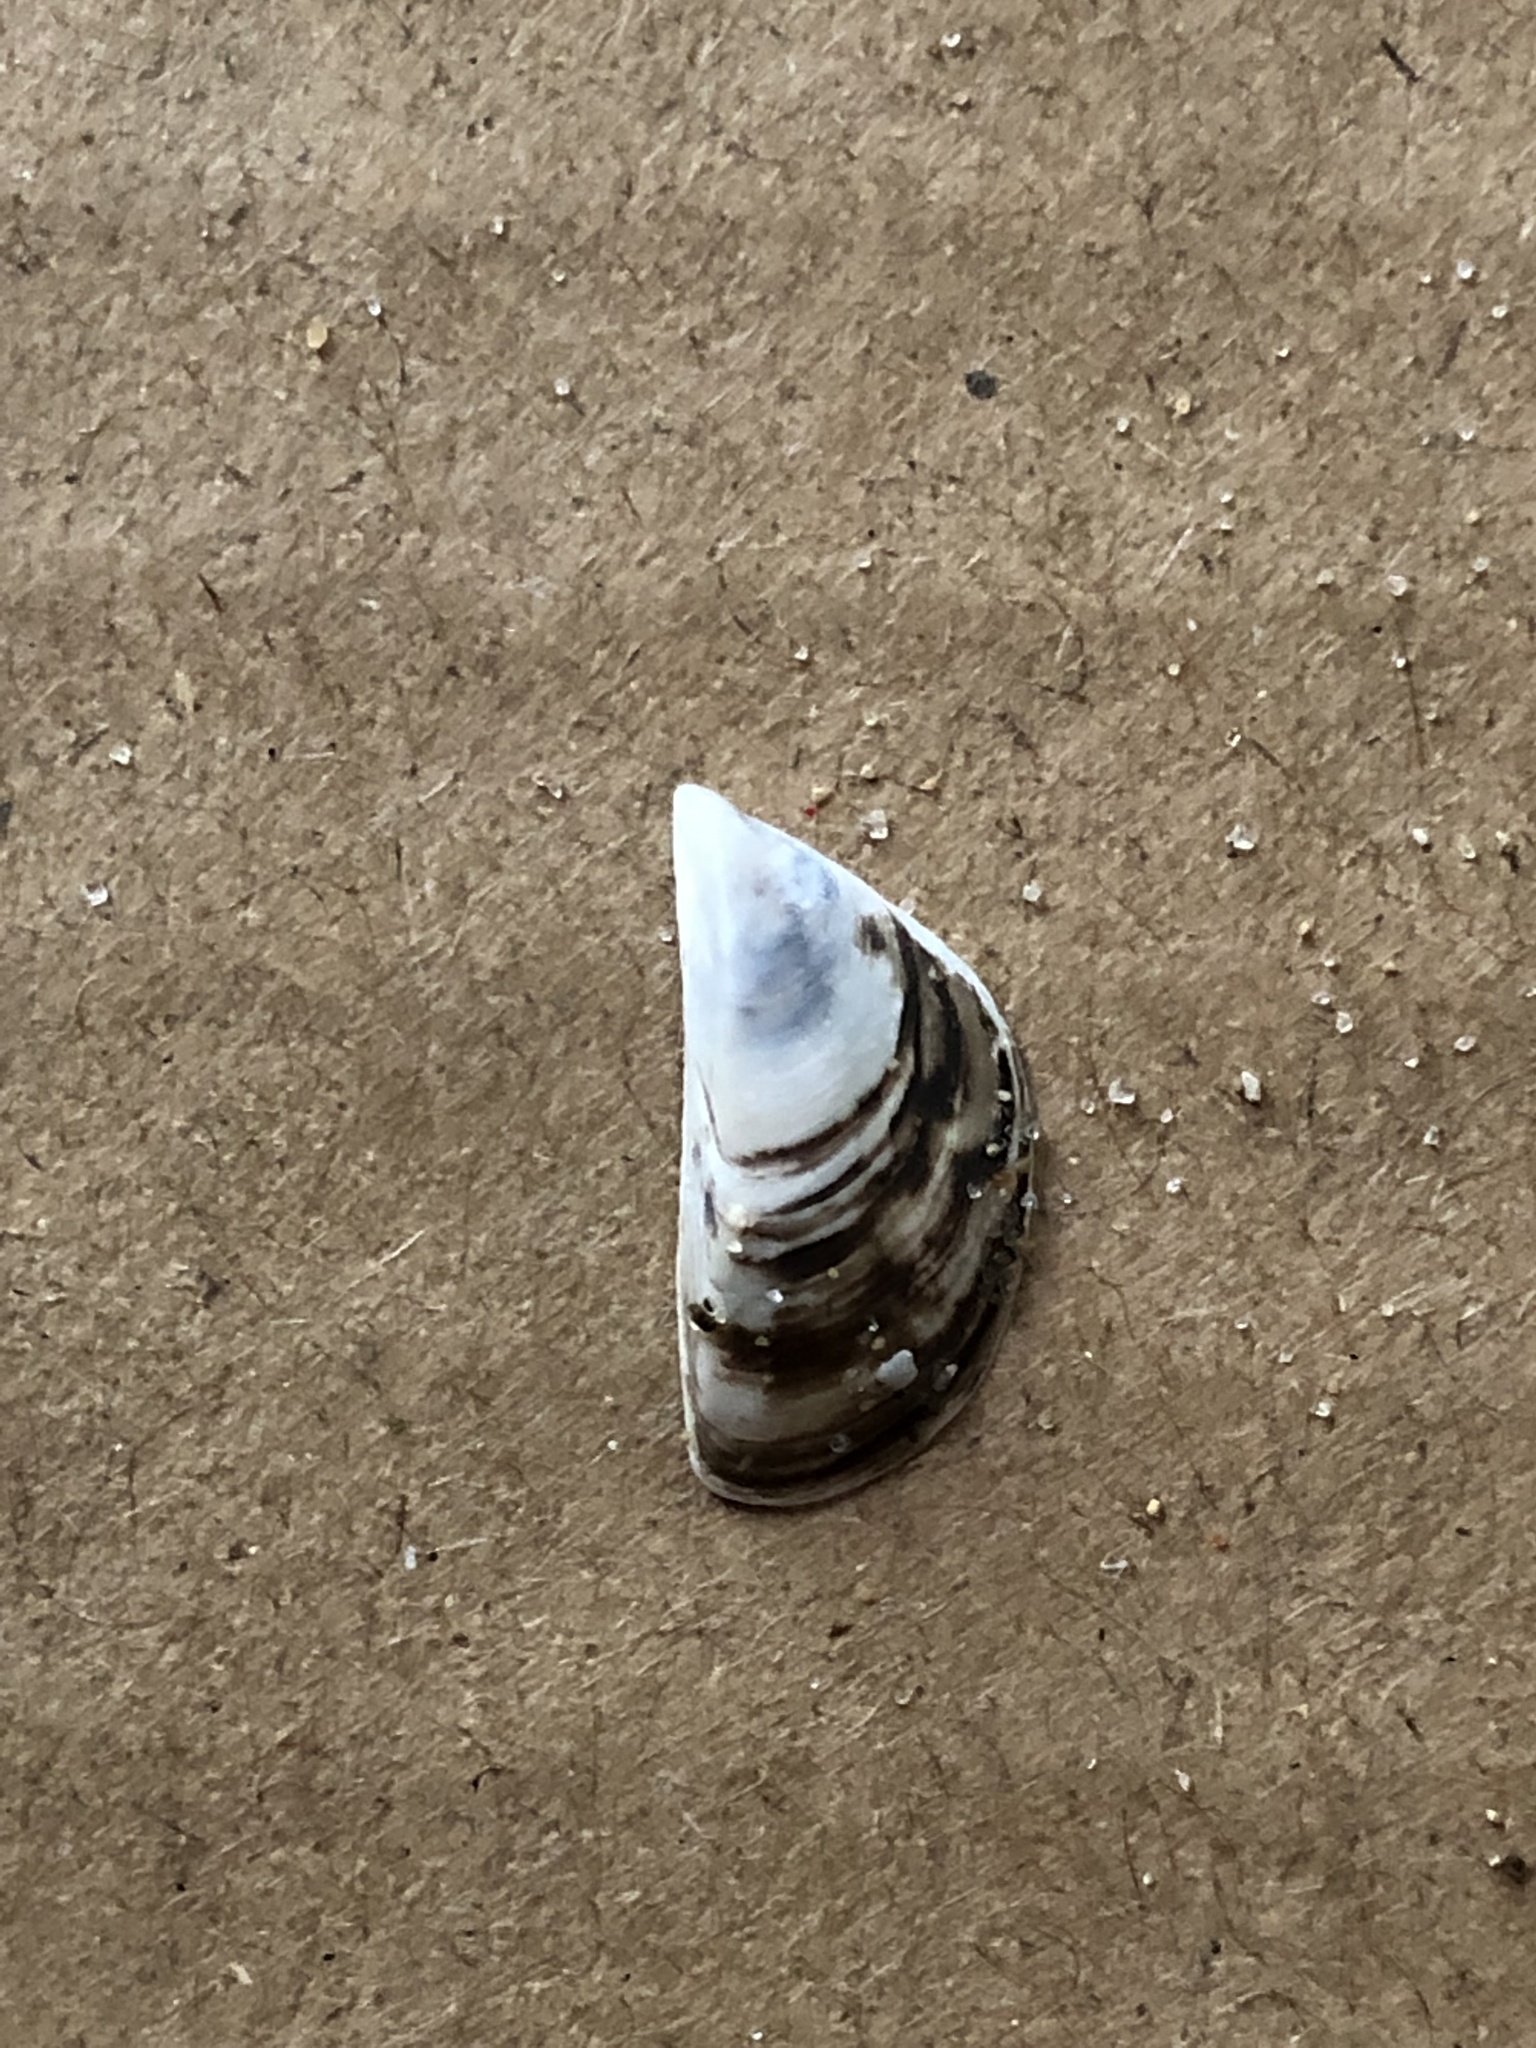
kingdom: Animalia
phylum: Mollusca
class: Bivalvia
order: Myida
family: Dreissenidae
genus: Dreissena
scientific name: Dreissena polymorpha
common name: Zebra mussel
